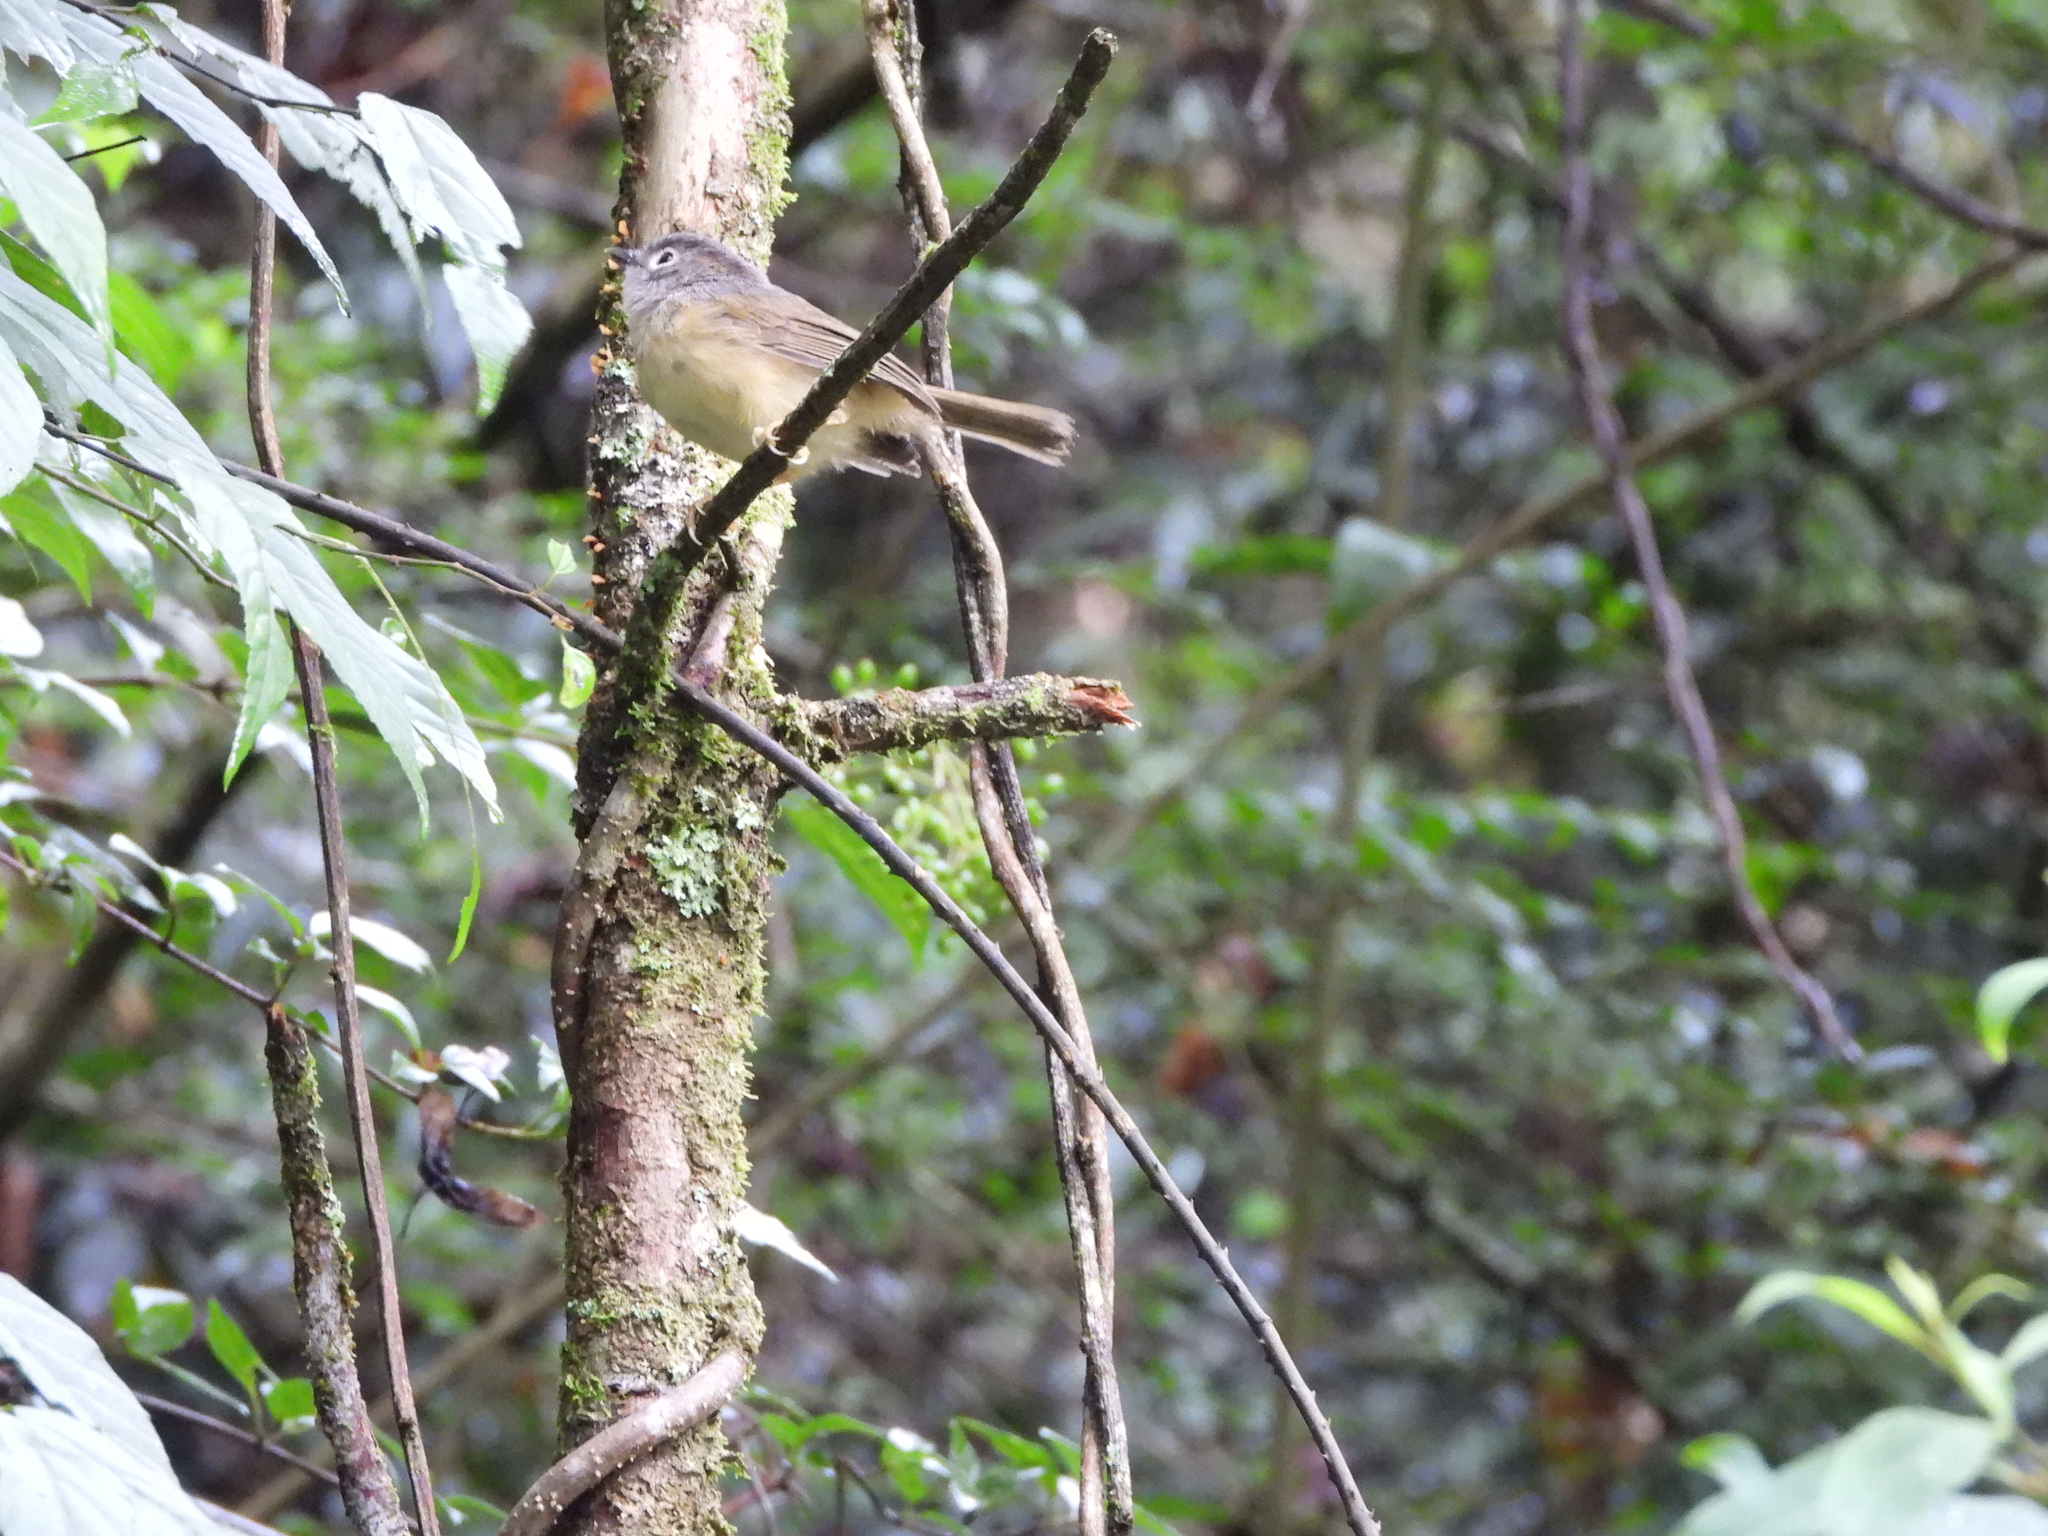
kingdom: Animalia
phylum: Chordata
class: Aves
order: Passeriformes
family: Pellorneidae
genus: Alcippe
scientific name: Alcippe morrisonia
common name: Grey-cheeked fulvetta
